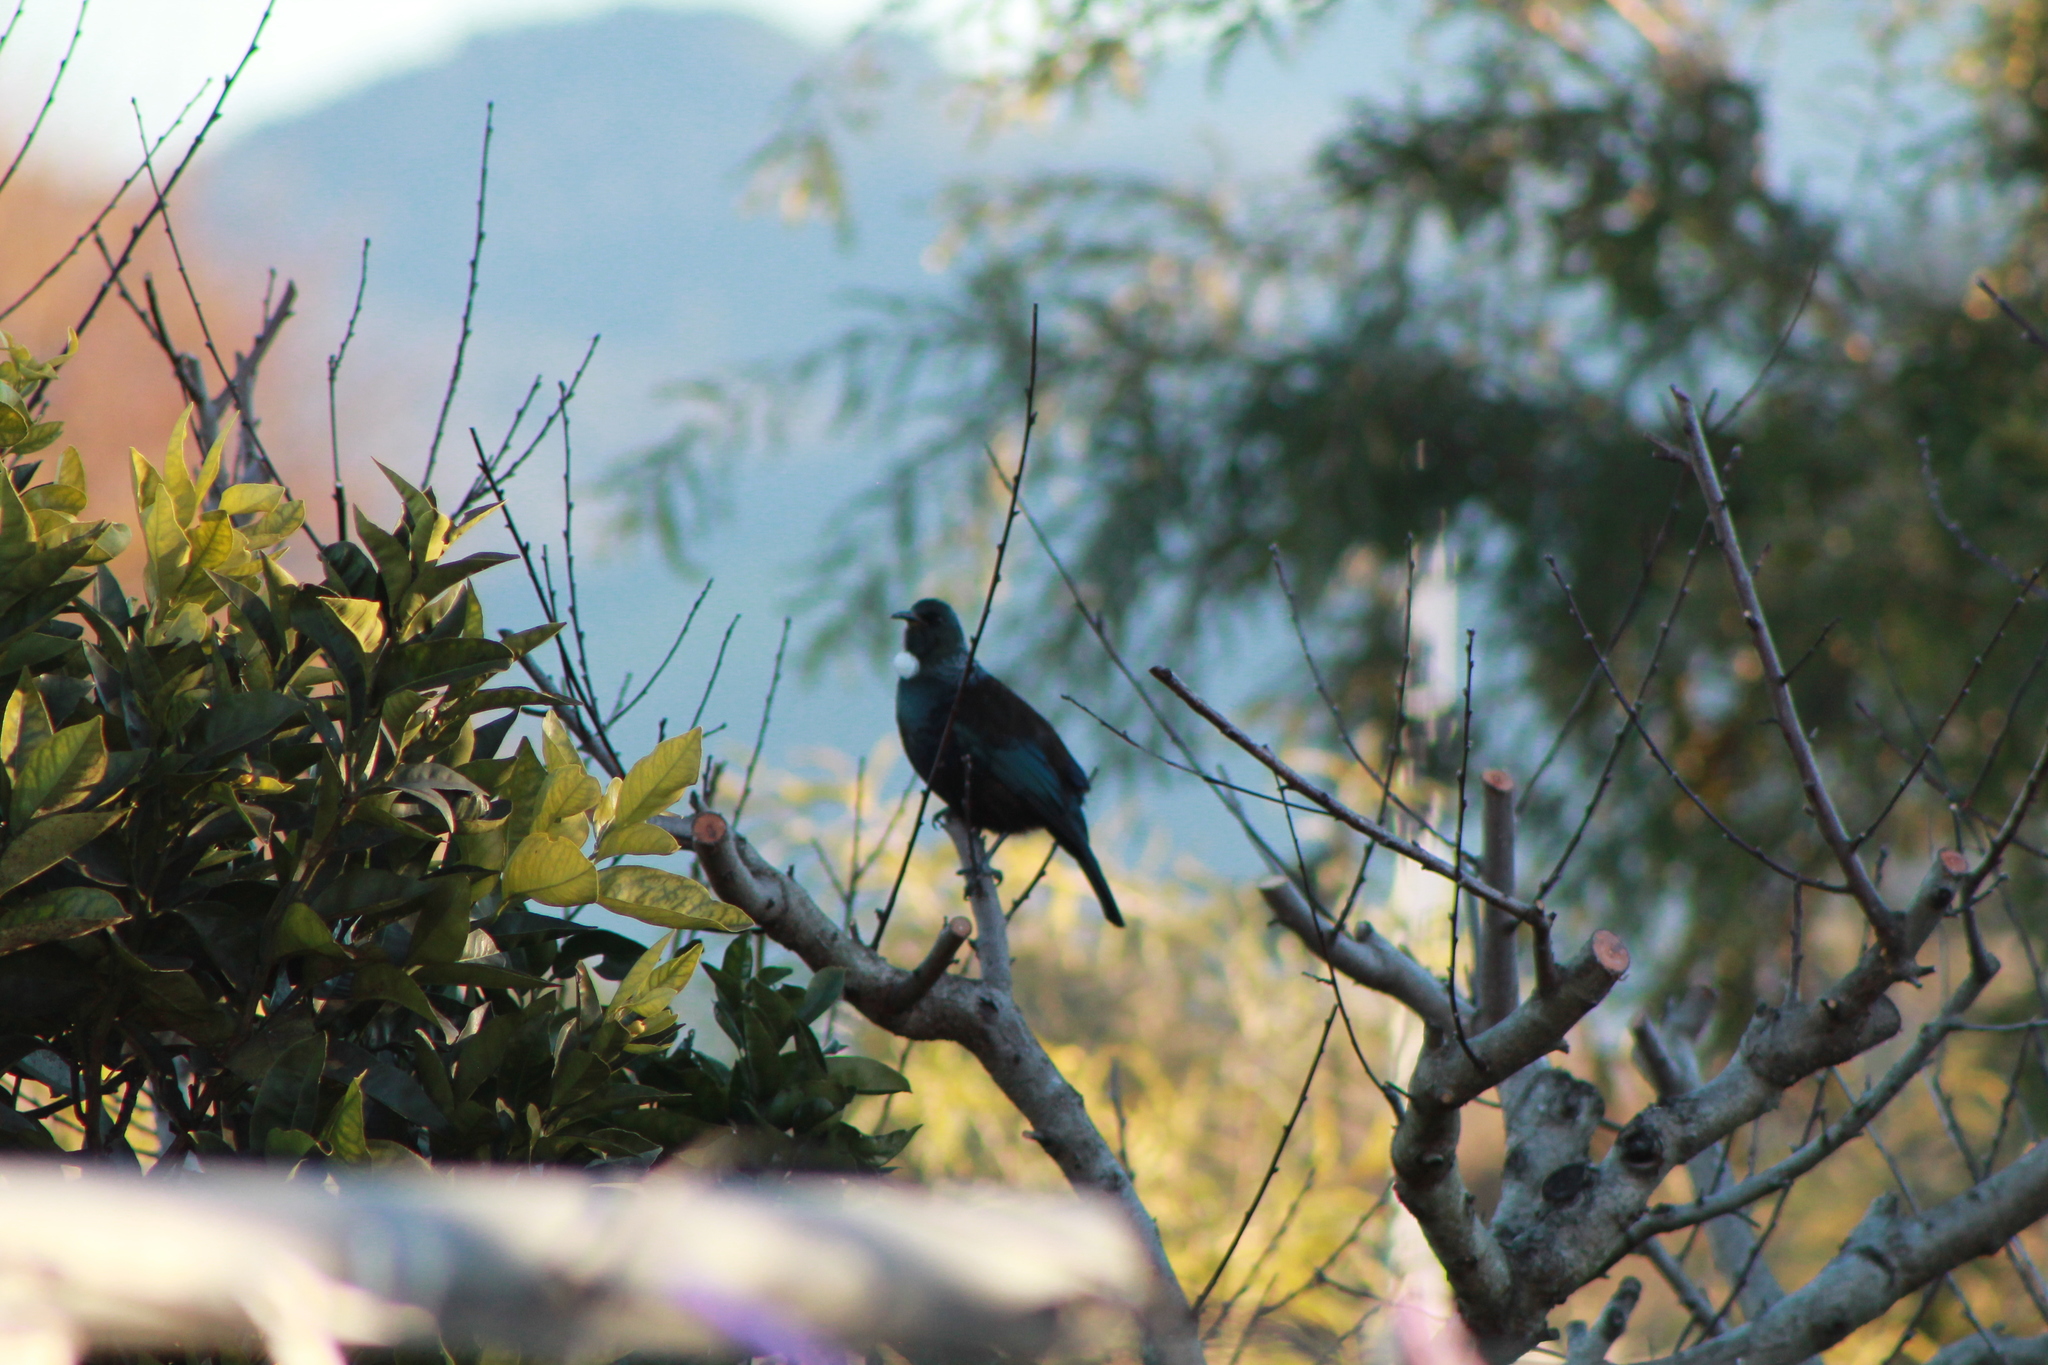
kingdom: Animalia
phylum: Chordata
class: Aves
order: Passeriformes
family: Meliphagidae
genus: Prosthemadera
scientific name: Prosthemadera novaeseelandiae
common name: Tui
